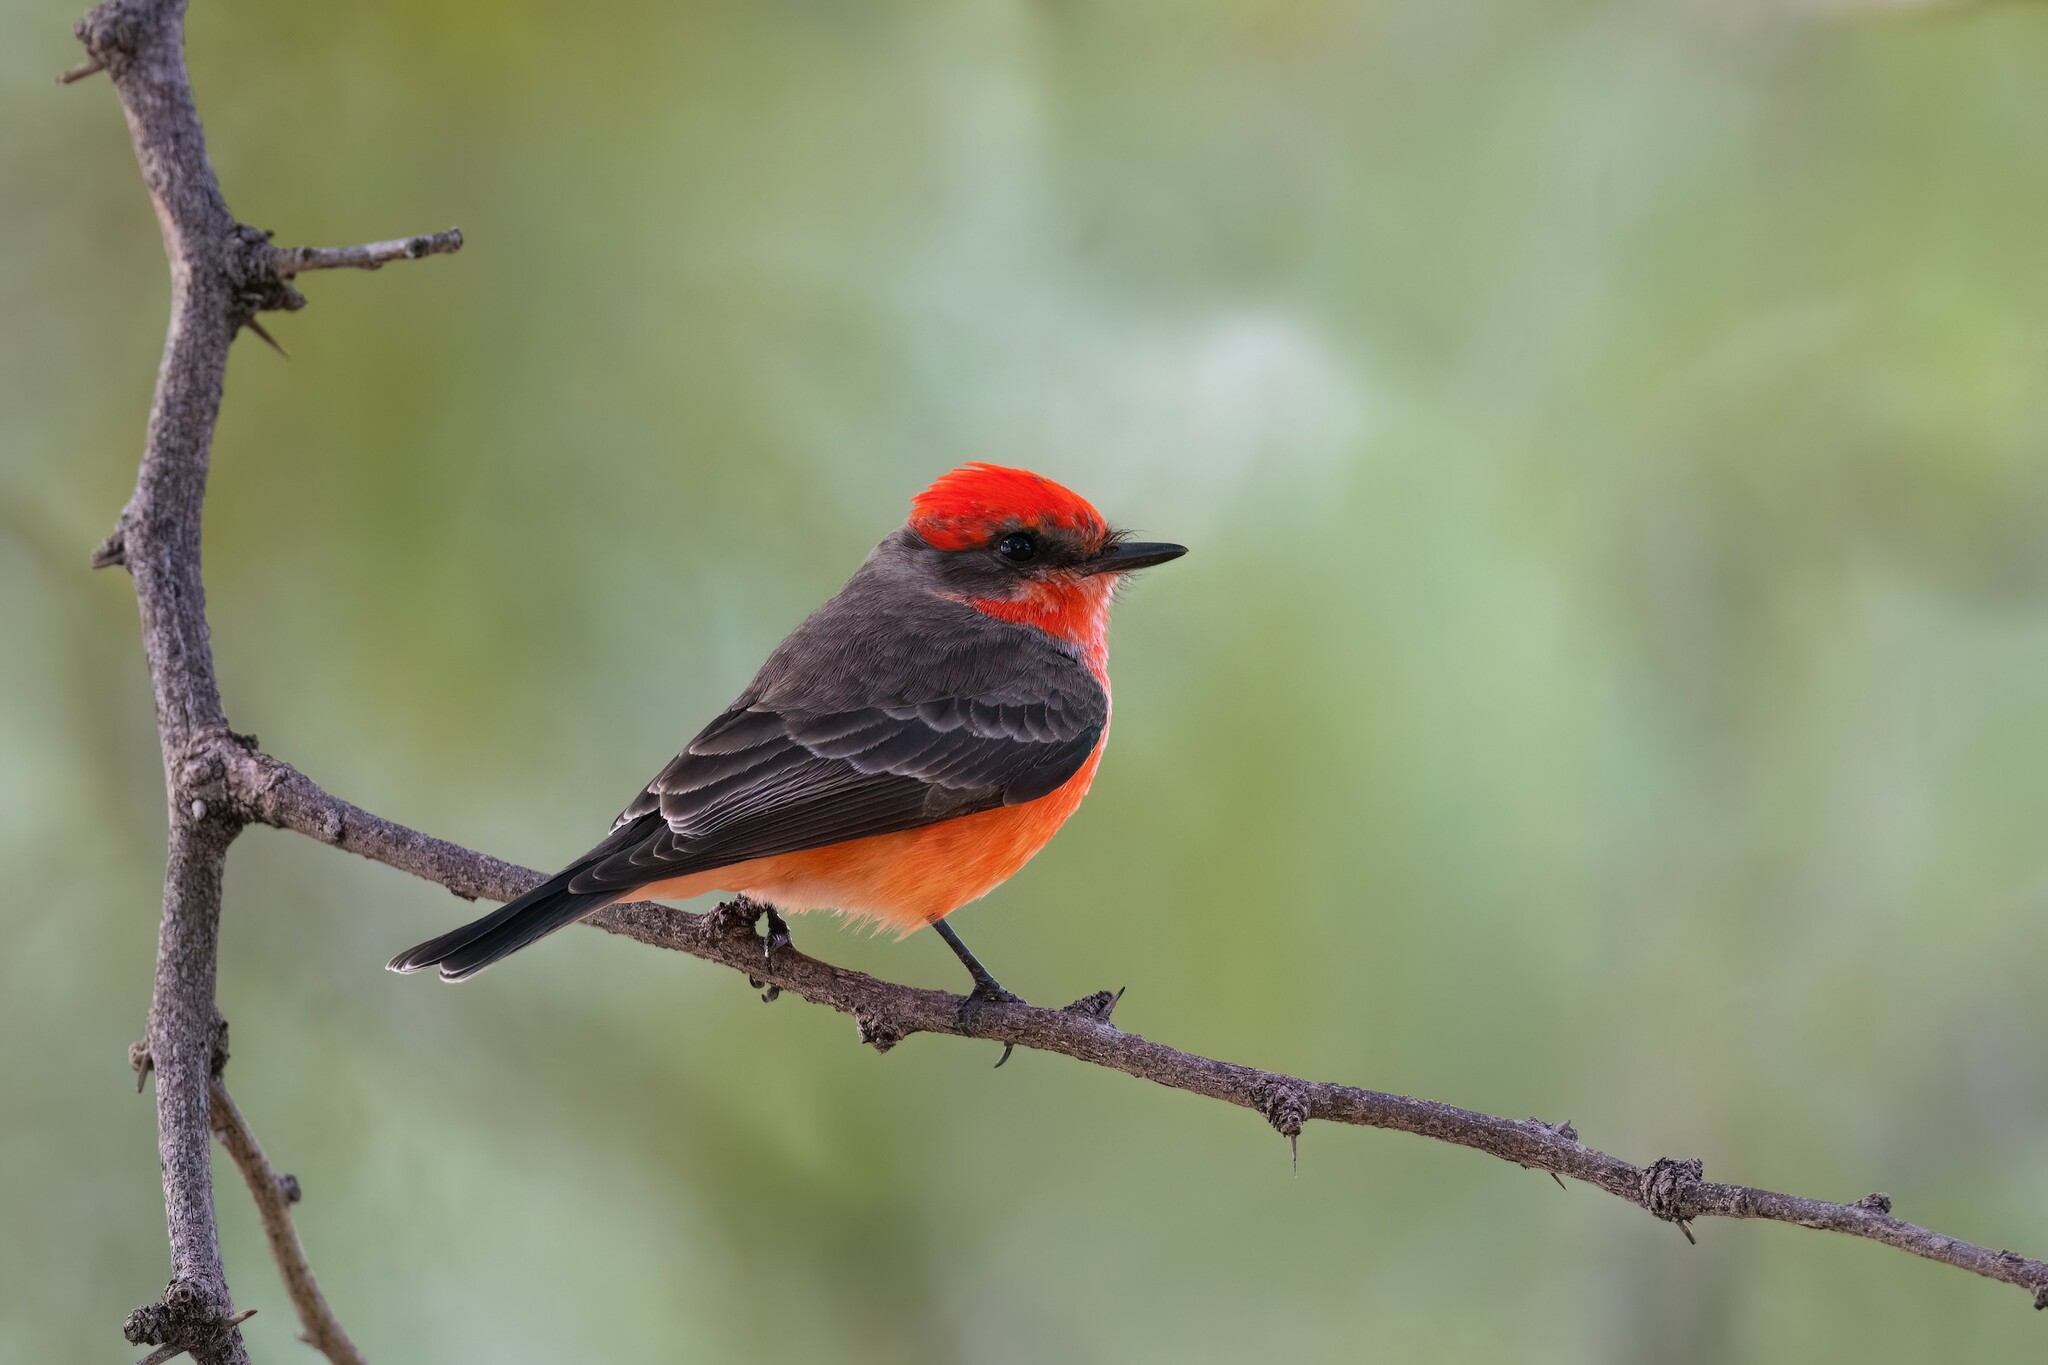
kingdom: Animalia
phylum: Chordata
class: Aves
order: Passeriformes
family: Tyrannidae
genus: Pyrocephalus
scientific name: Pyrocephalus rubinus
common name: Vermilion flycatcher
